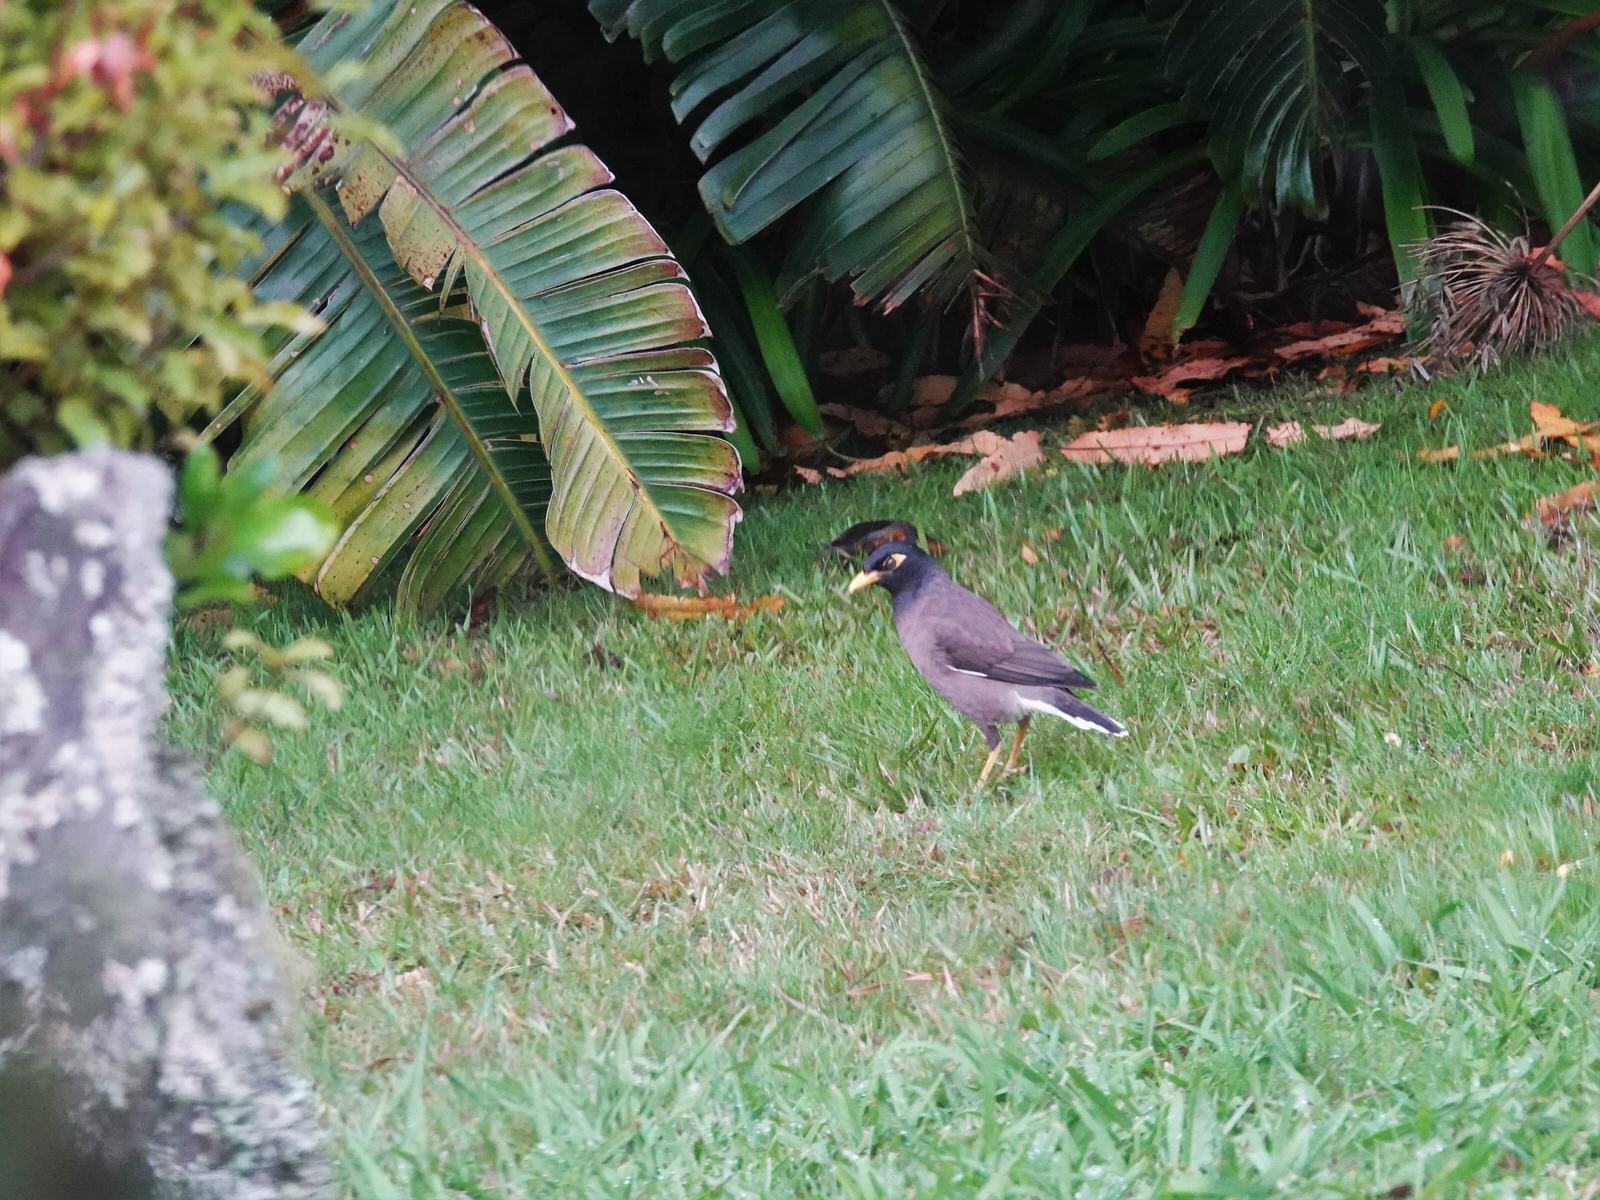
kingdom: Animalia
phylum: Chordata
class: Aves
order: Passeriformes
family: Sturnidae
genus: Acridotheres
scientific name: Acridotheres tristis
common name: Common myna
